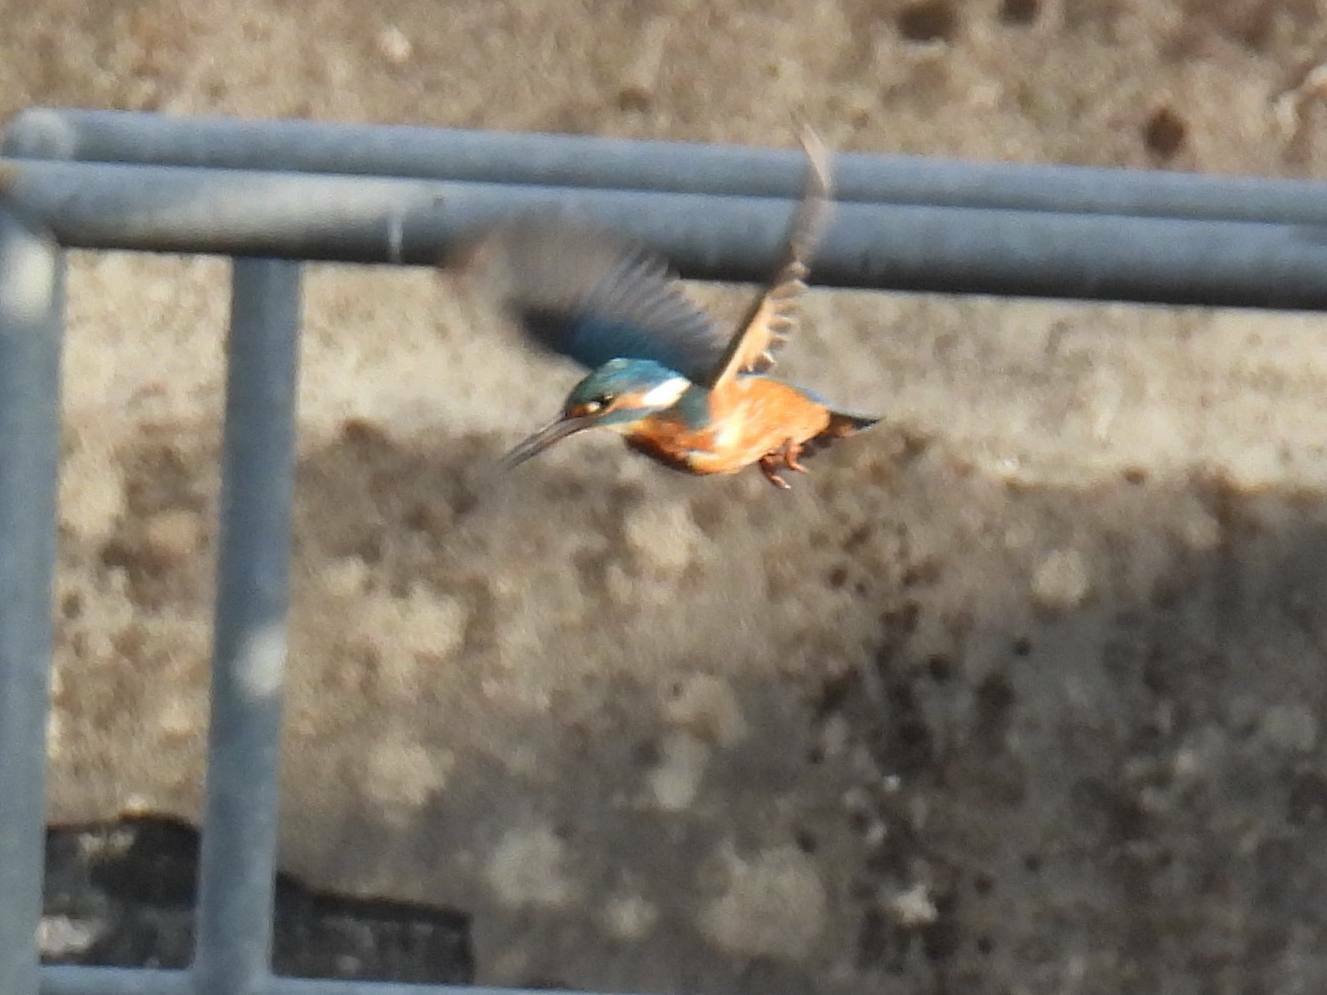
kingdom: Animalia
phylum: Chordata
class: Aves
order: Coraciiformes
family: Alcedinidae
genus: Alcedo
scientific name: Alcedo atthis
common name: Common kingfisher
